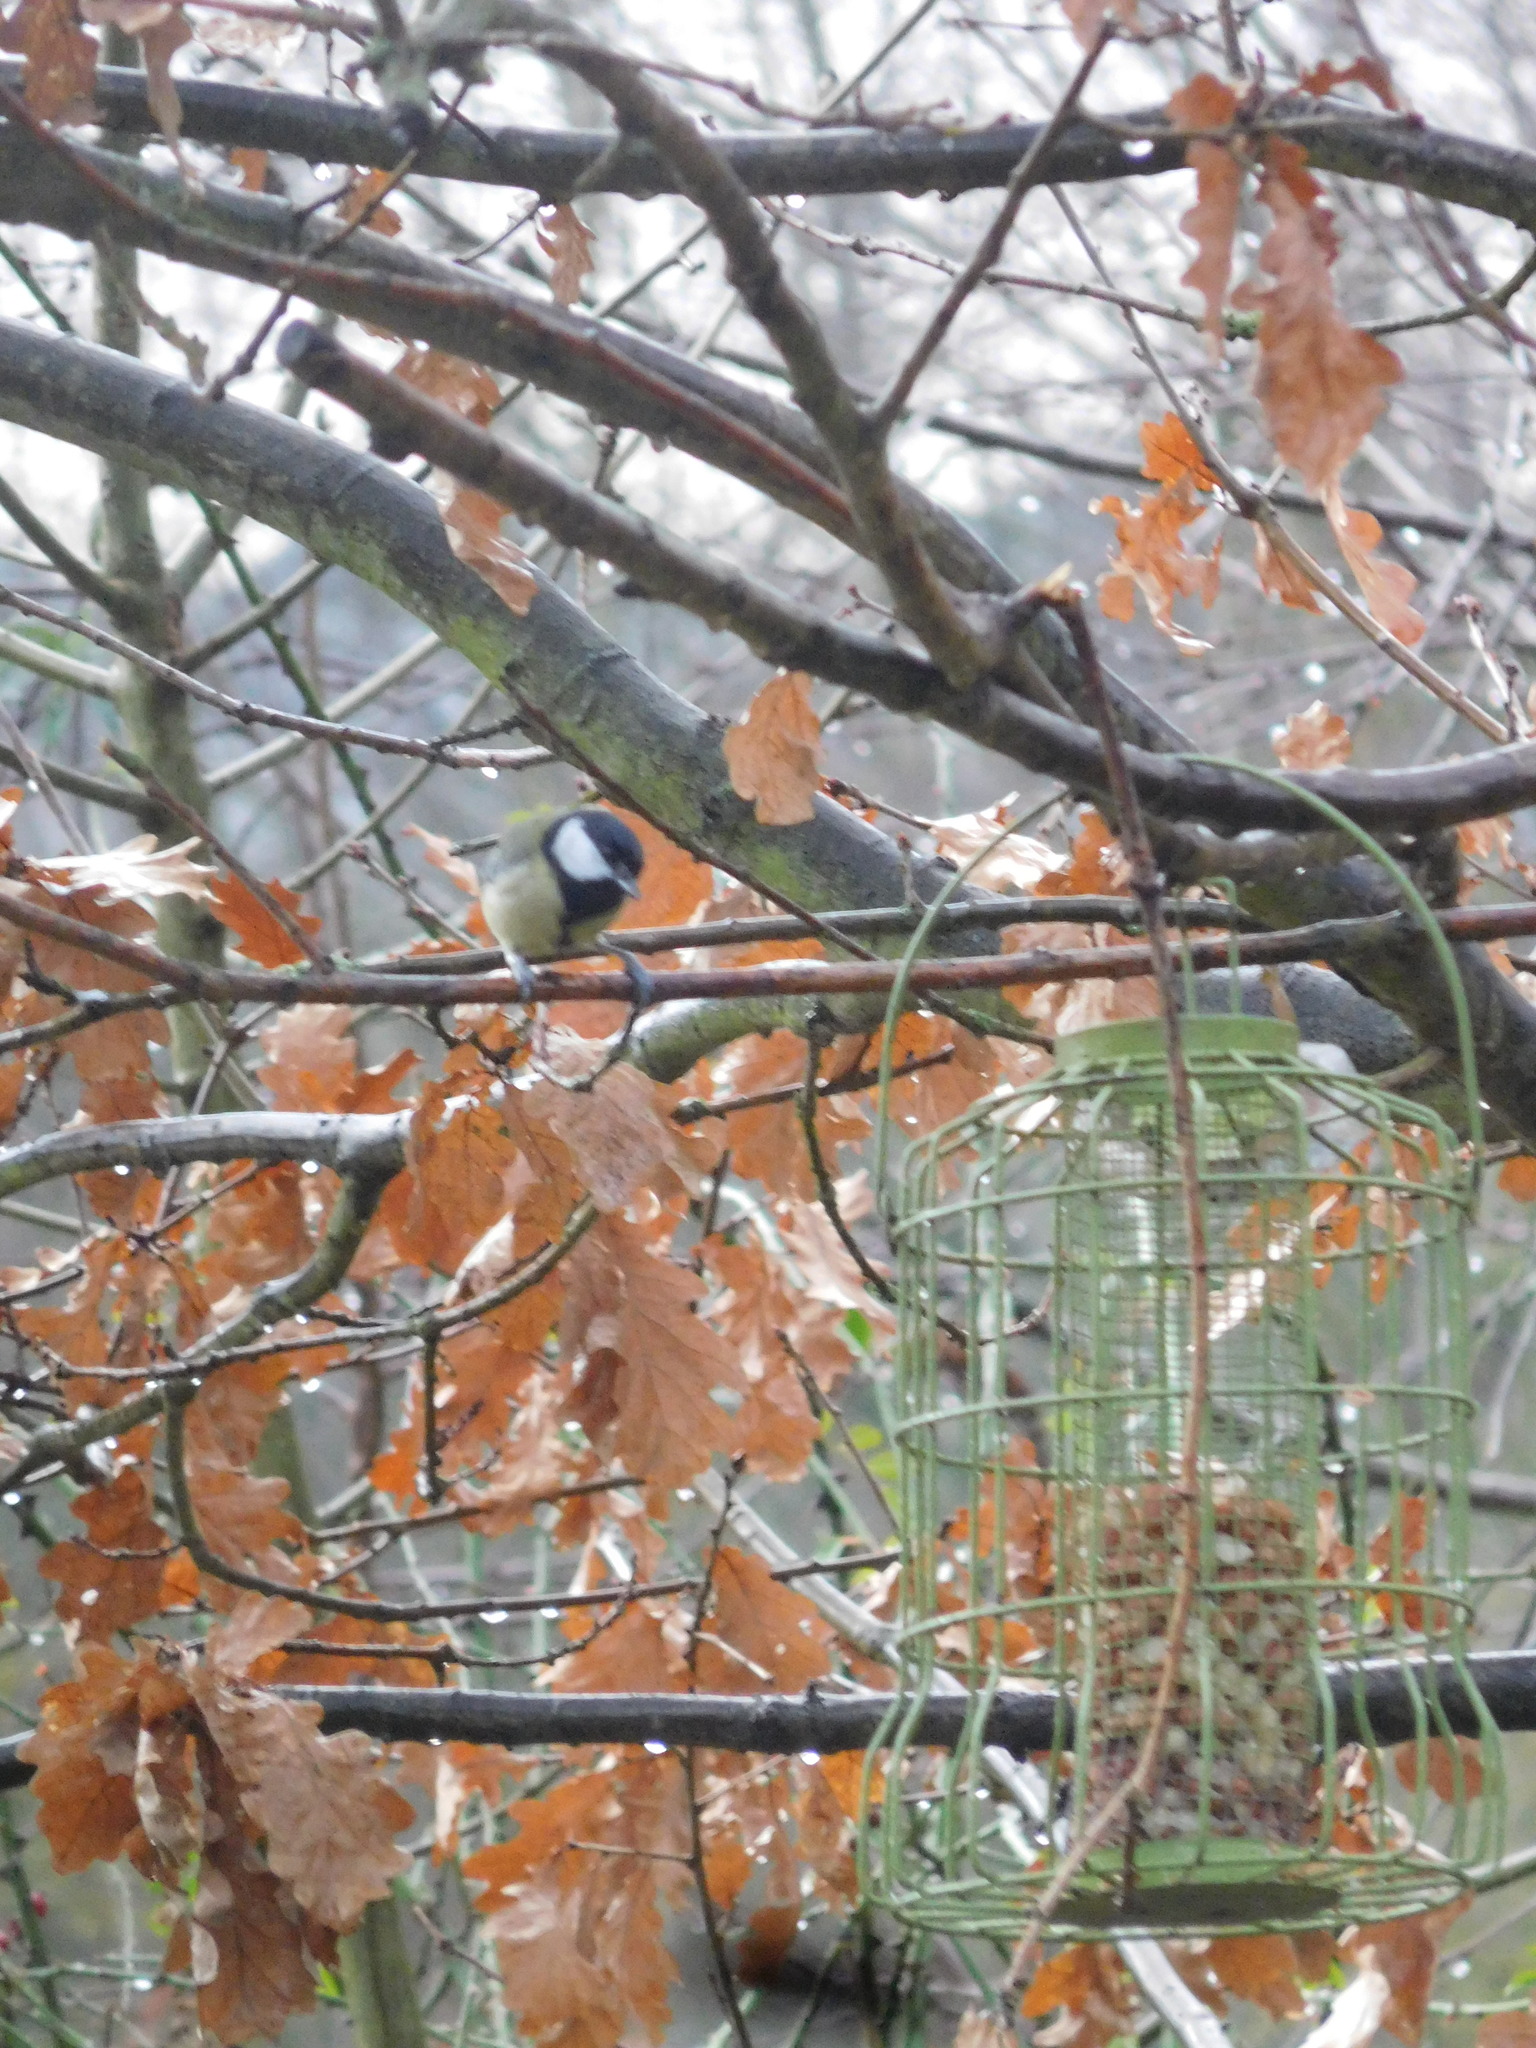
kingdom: Animalia
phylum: Chordata
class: Aves
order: Passeriformes
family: Paridae
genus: Parus
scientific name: Parus major
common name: Great tit
